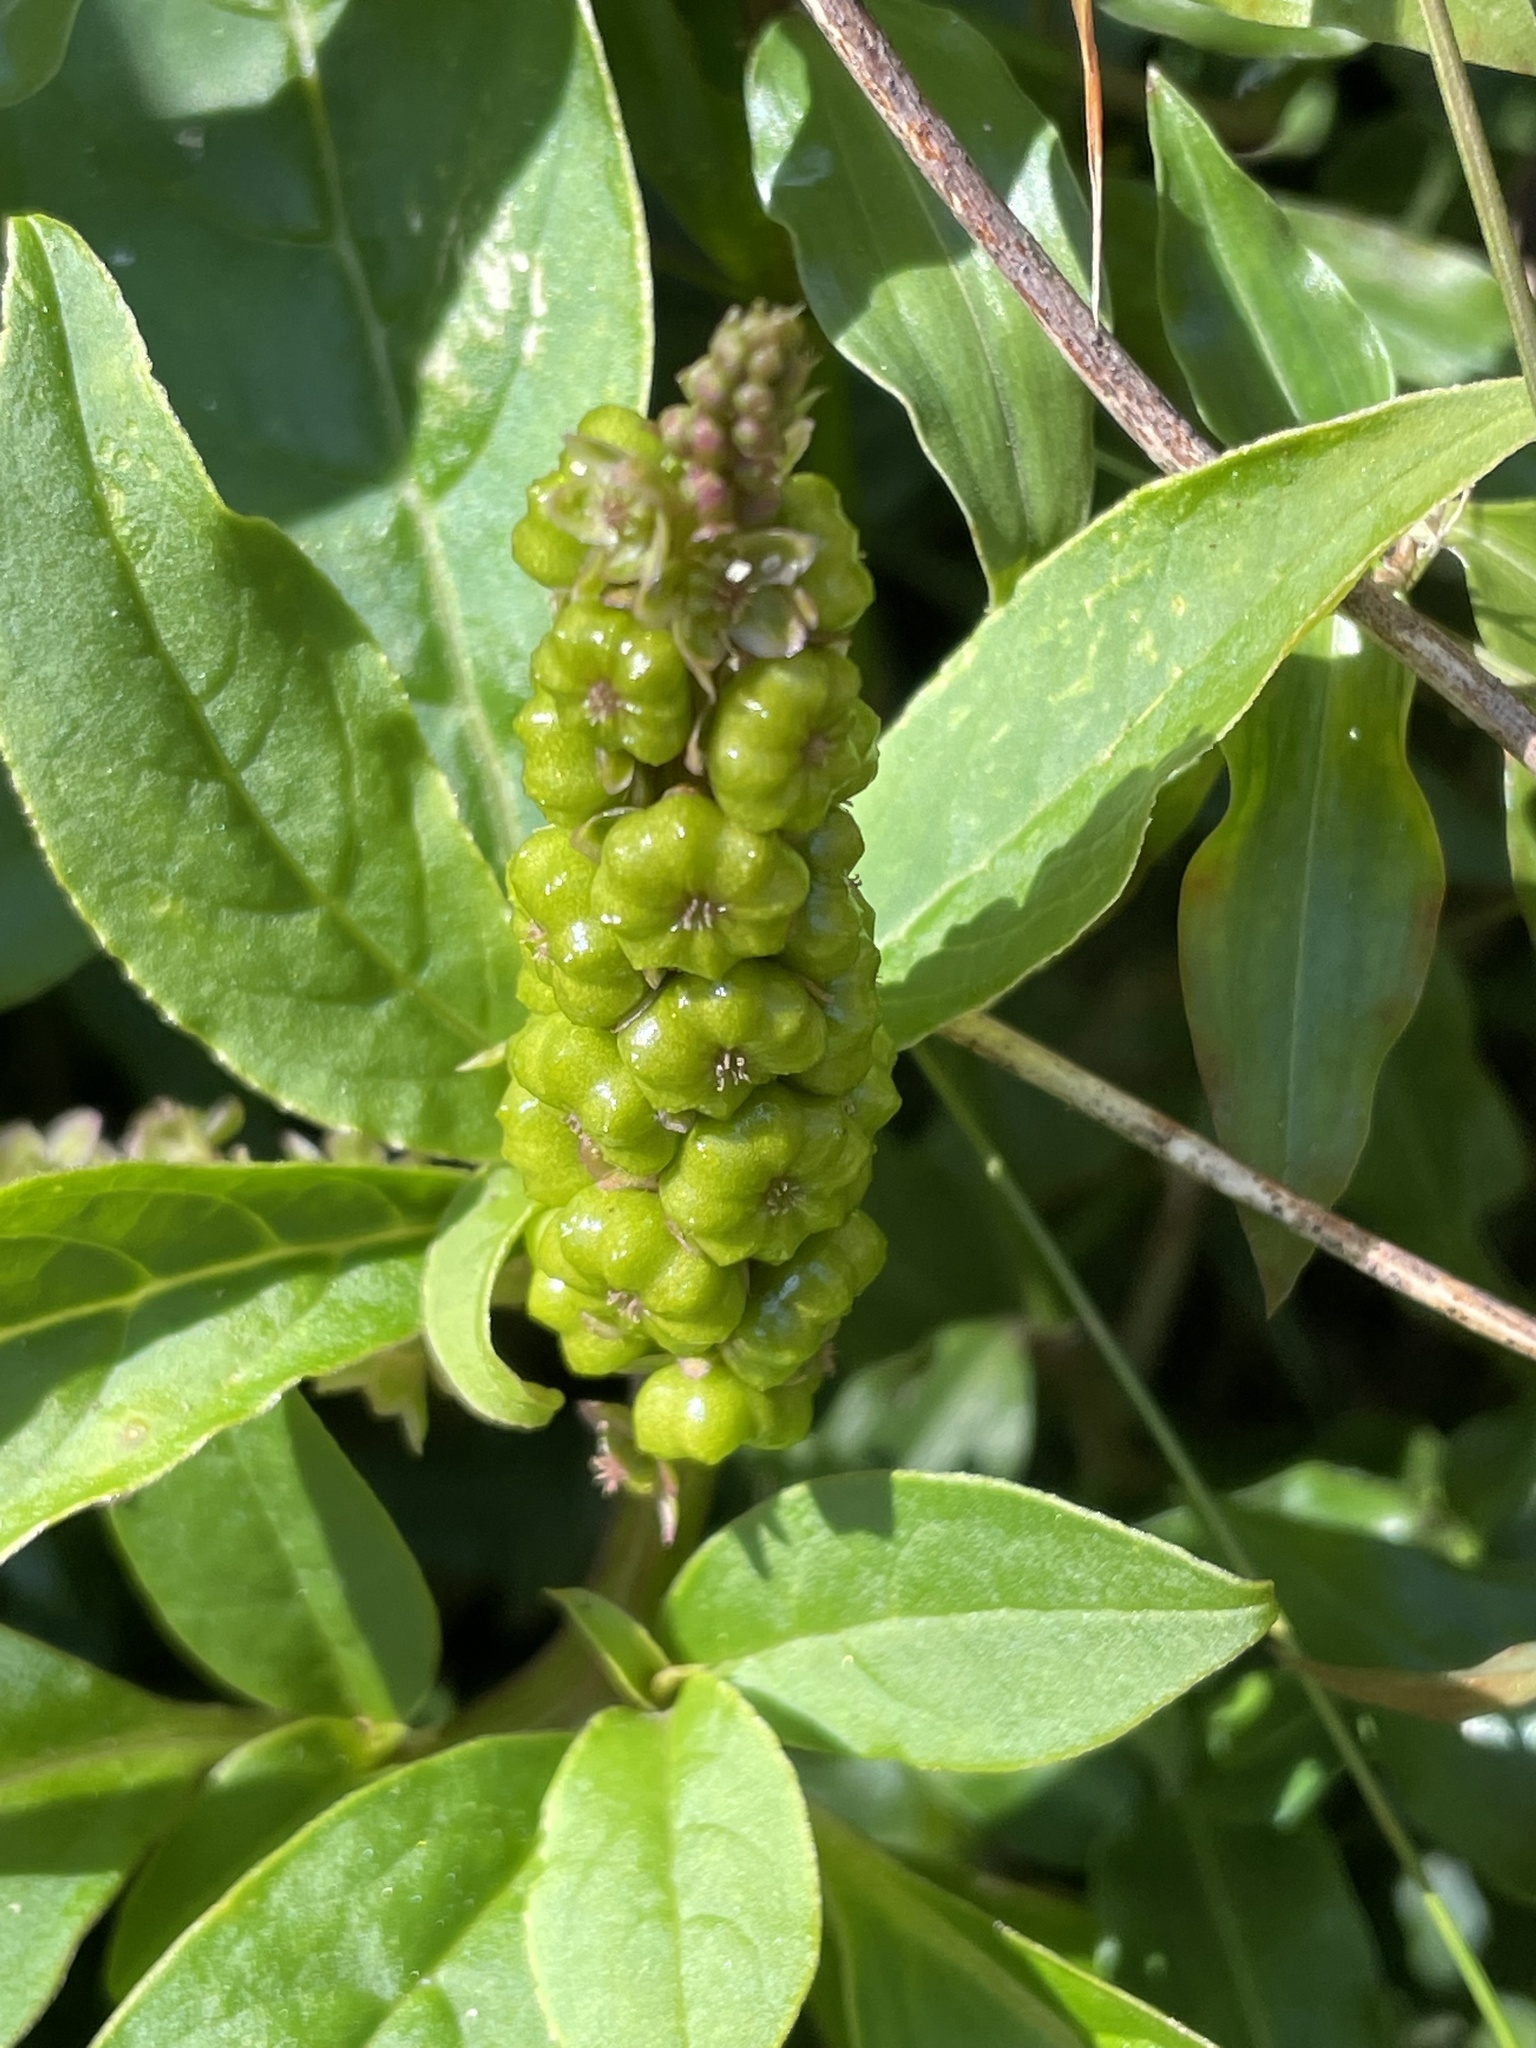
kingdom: Plantae
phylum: Tracheophyta
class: Magnoliopsida
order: Caryophyllales
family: Phytolaccaceae
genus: Phytolacca
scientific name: Phytolacca icosandra
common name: Button pokeweed
